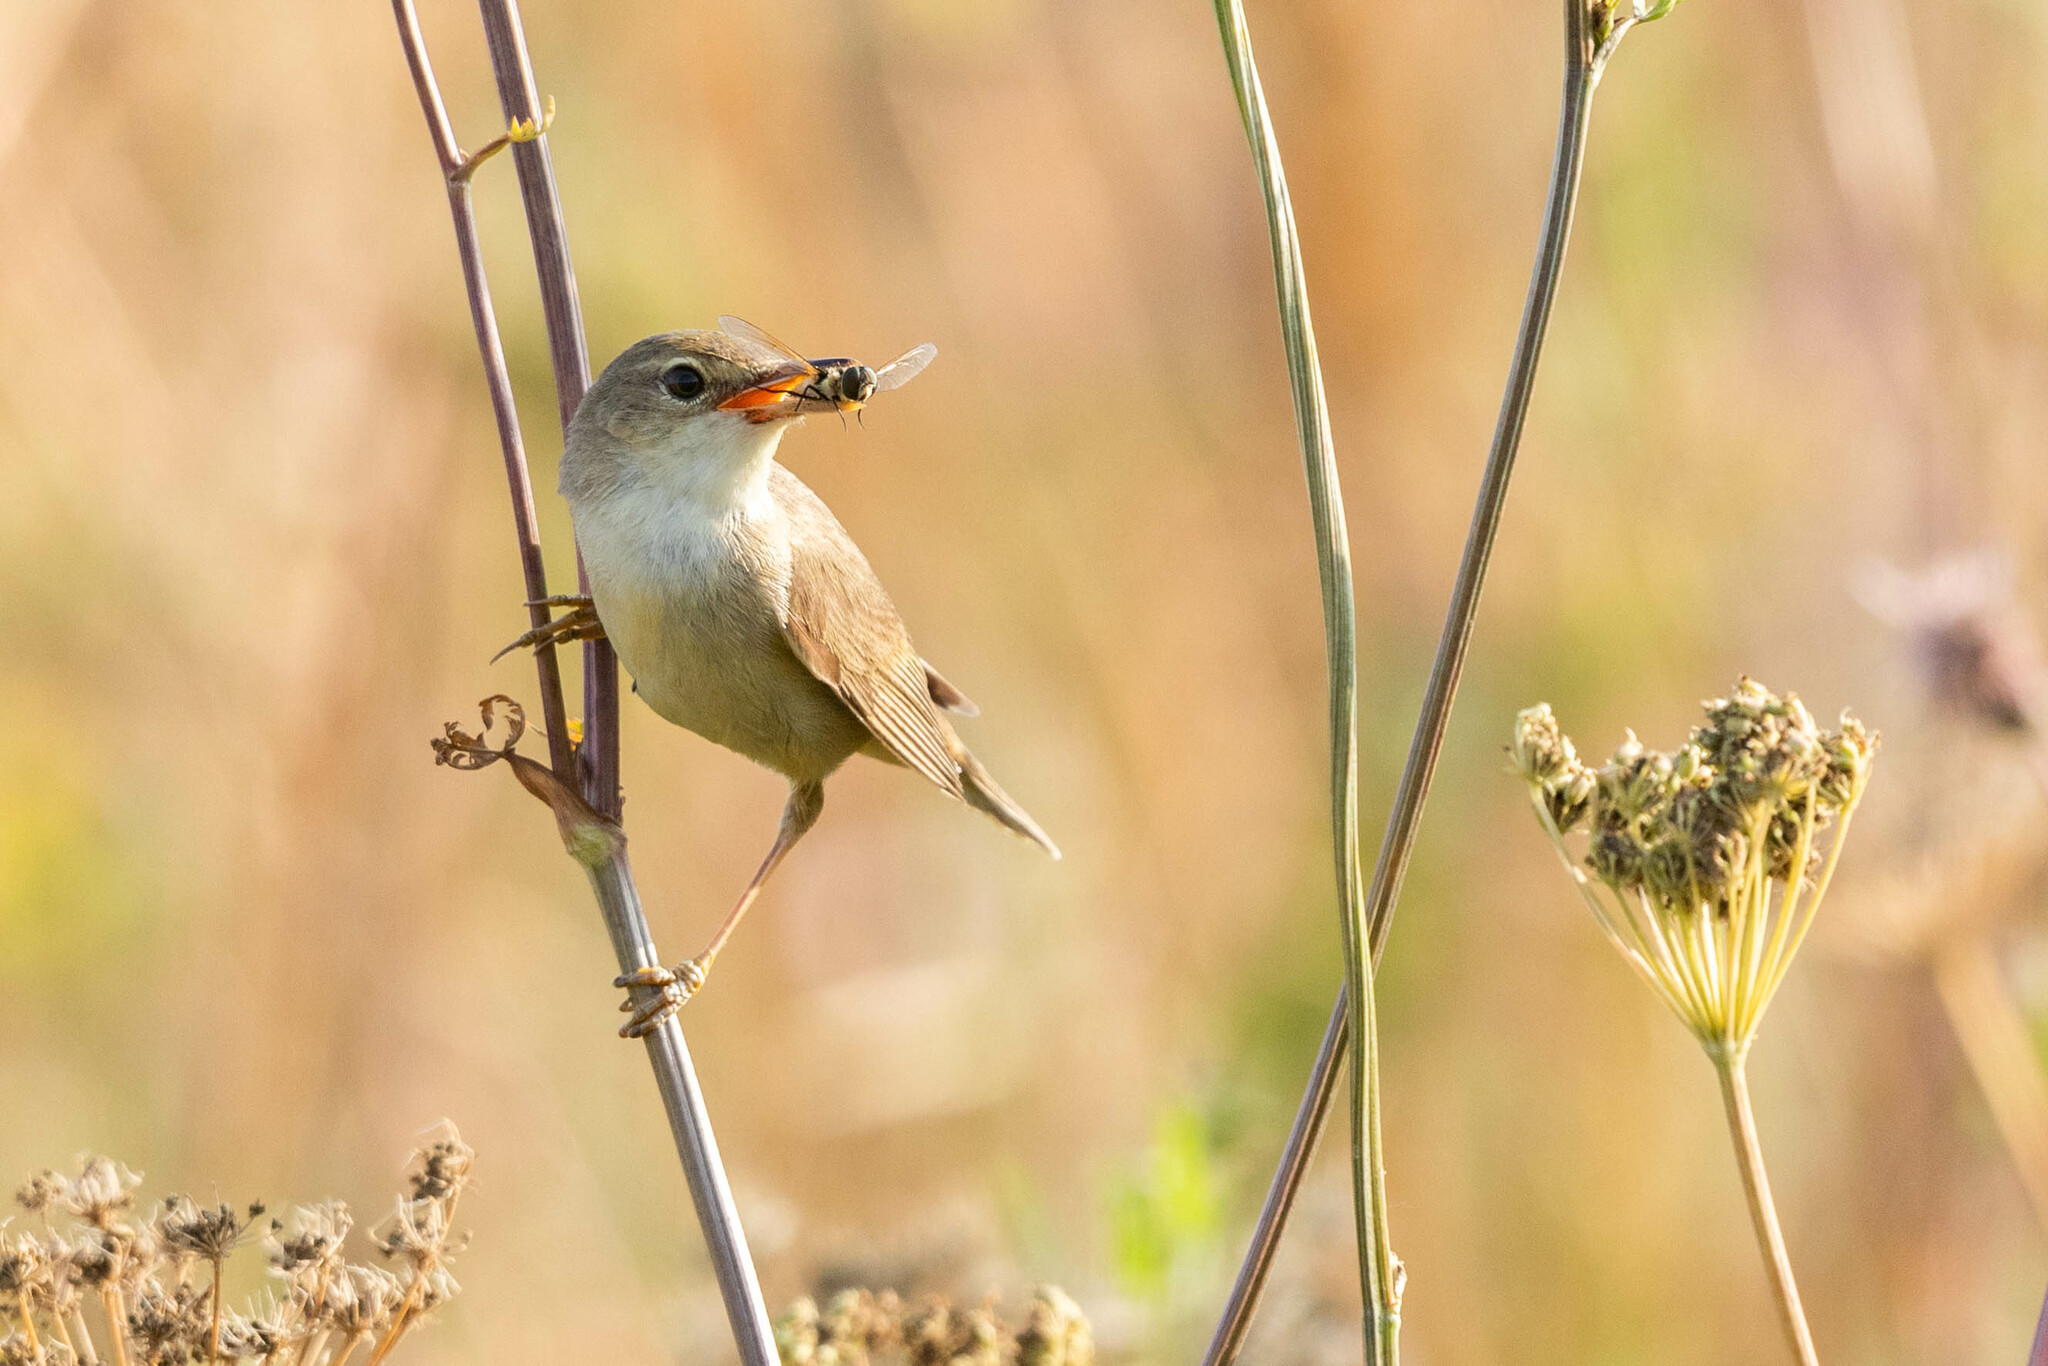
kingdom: Animalia
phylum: Chordata
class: Aves
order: Passeriformes
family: Acrocephalidae
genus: Acrocephalus
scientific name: Acrocephalus palustris
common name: Marsh warbler
